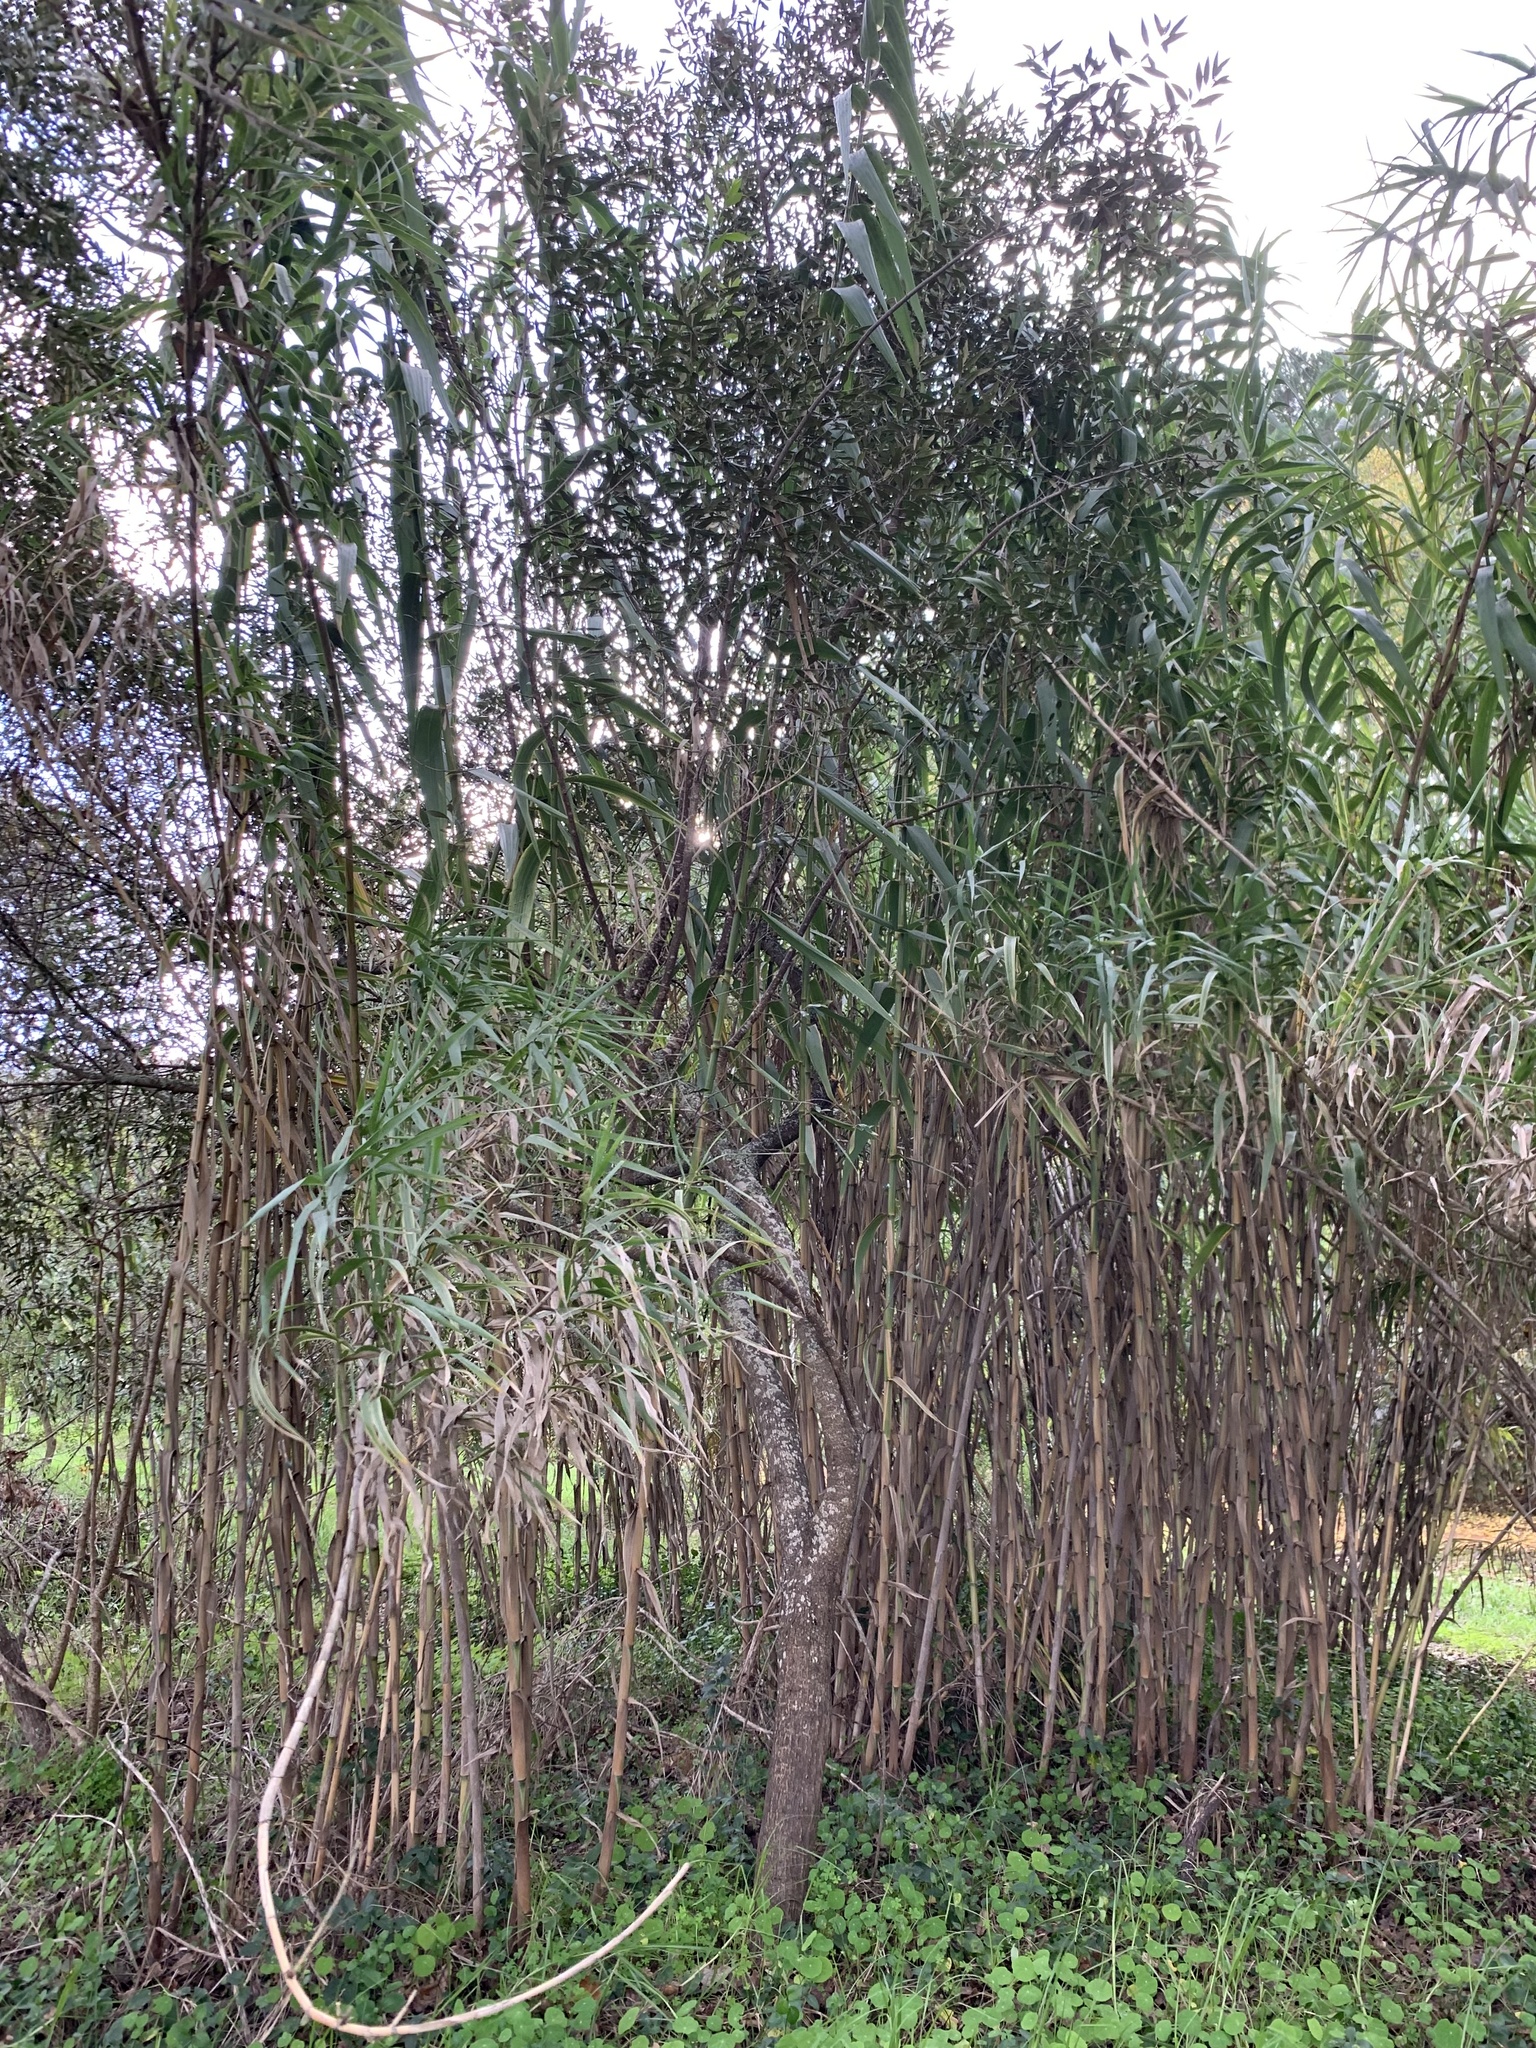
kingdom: Plantae
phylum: Tracheophyta
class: Liliopsida
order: Poales
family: Poaceae
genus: Arundo
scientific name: Arundo donax
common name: Giant reed
